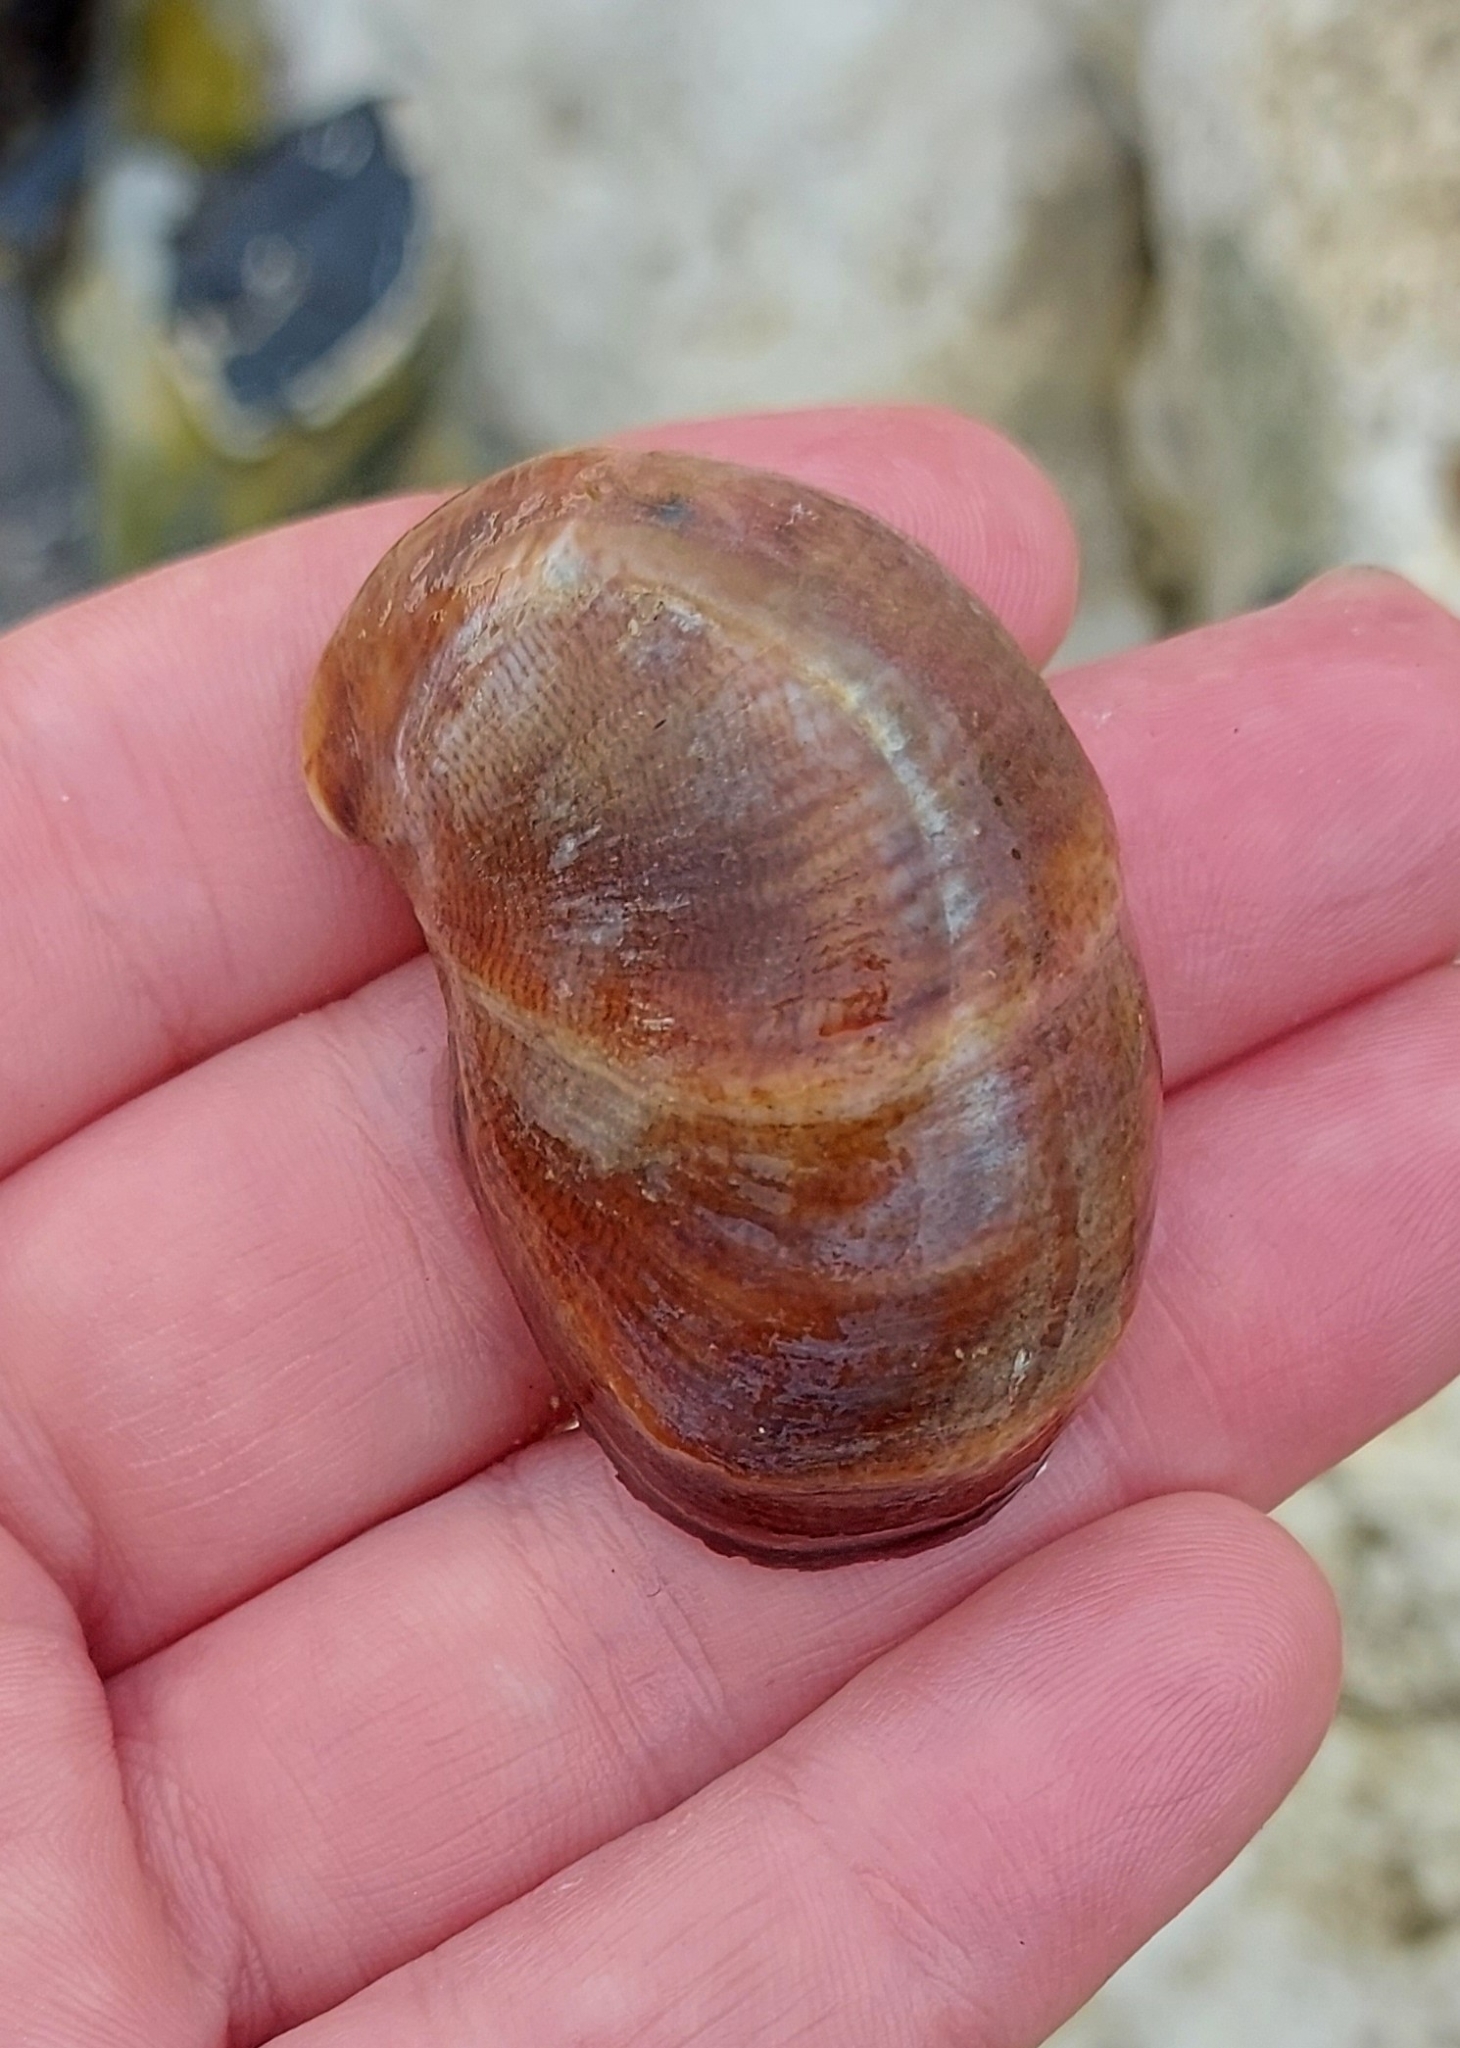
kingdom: Animalia
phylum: Mollusca
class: Gastropoda
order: Littorinimorpha
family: Calyptraeidae
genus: Crepidula
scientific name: Crepidula fornicata
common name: Slipper limpet
